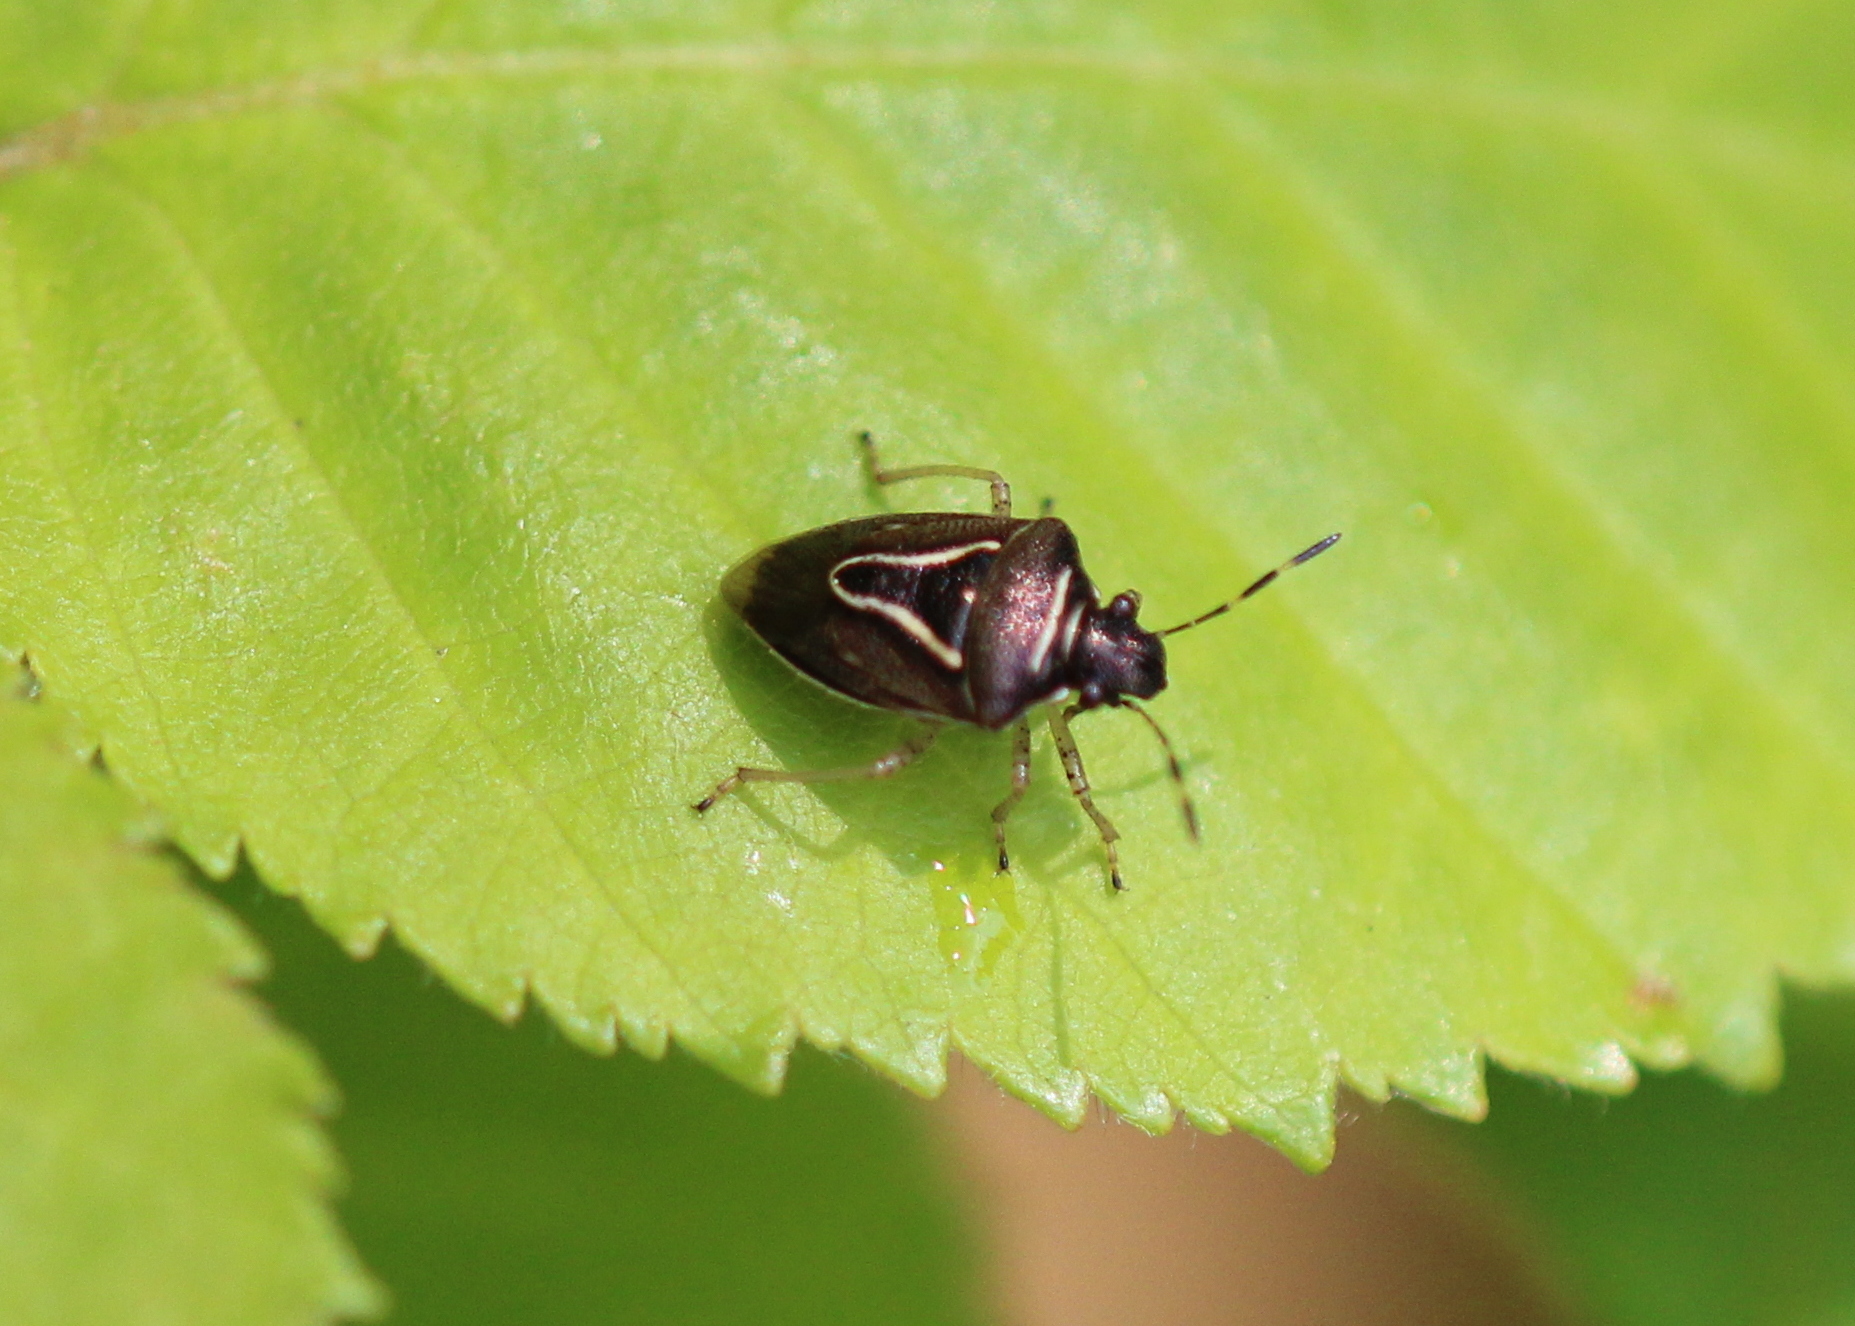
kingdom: Animalia
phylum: Arthropoda
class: Insecta
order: Hemiptera
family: Pentatomidae
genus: Mormidea
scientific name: Mormidea lugens
